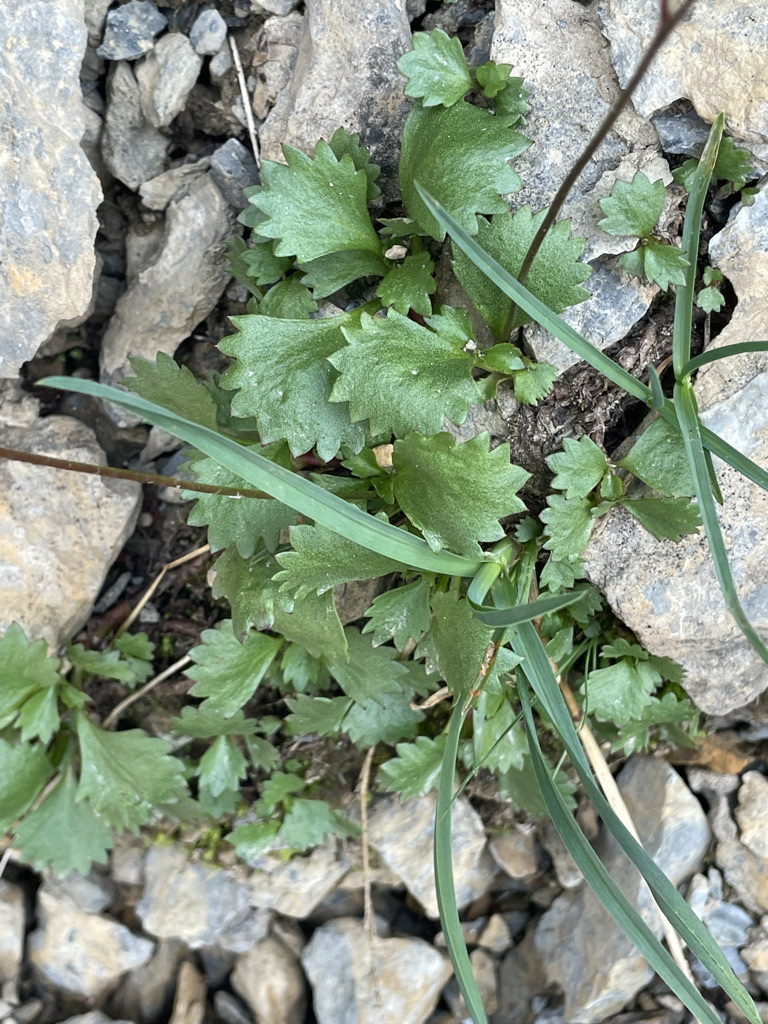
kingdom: Plantae
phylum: Tracheophyta
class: Magnoliopsida
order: Saxifragales
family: Saxifragaceae
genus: Micranthes
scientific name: Micranthes lyallii
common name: Lyall's saxifrage
